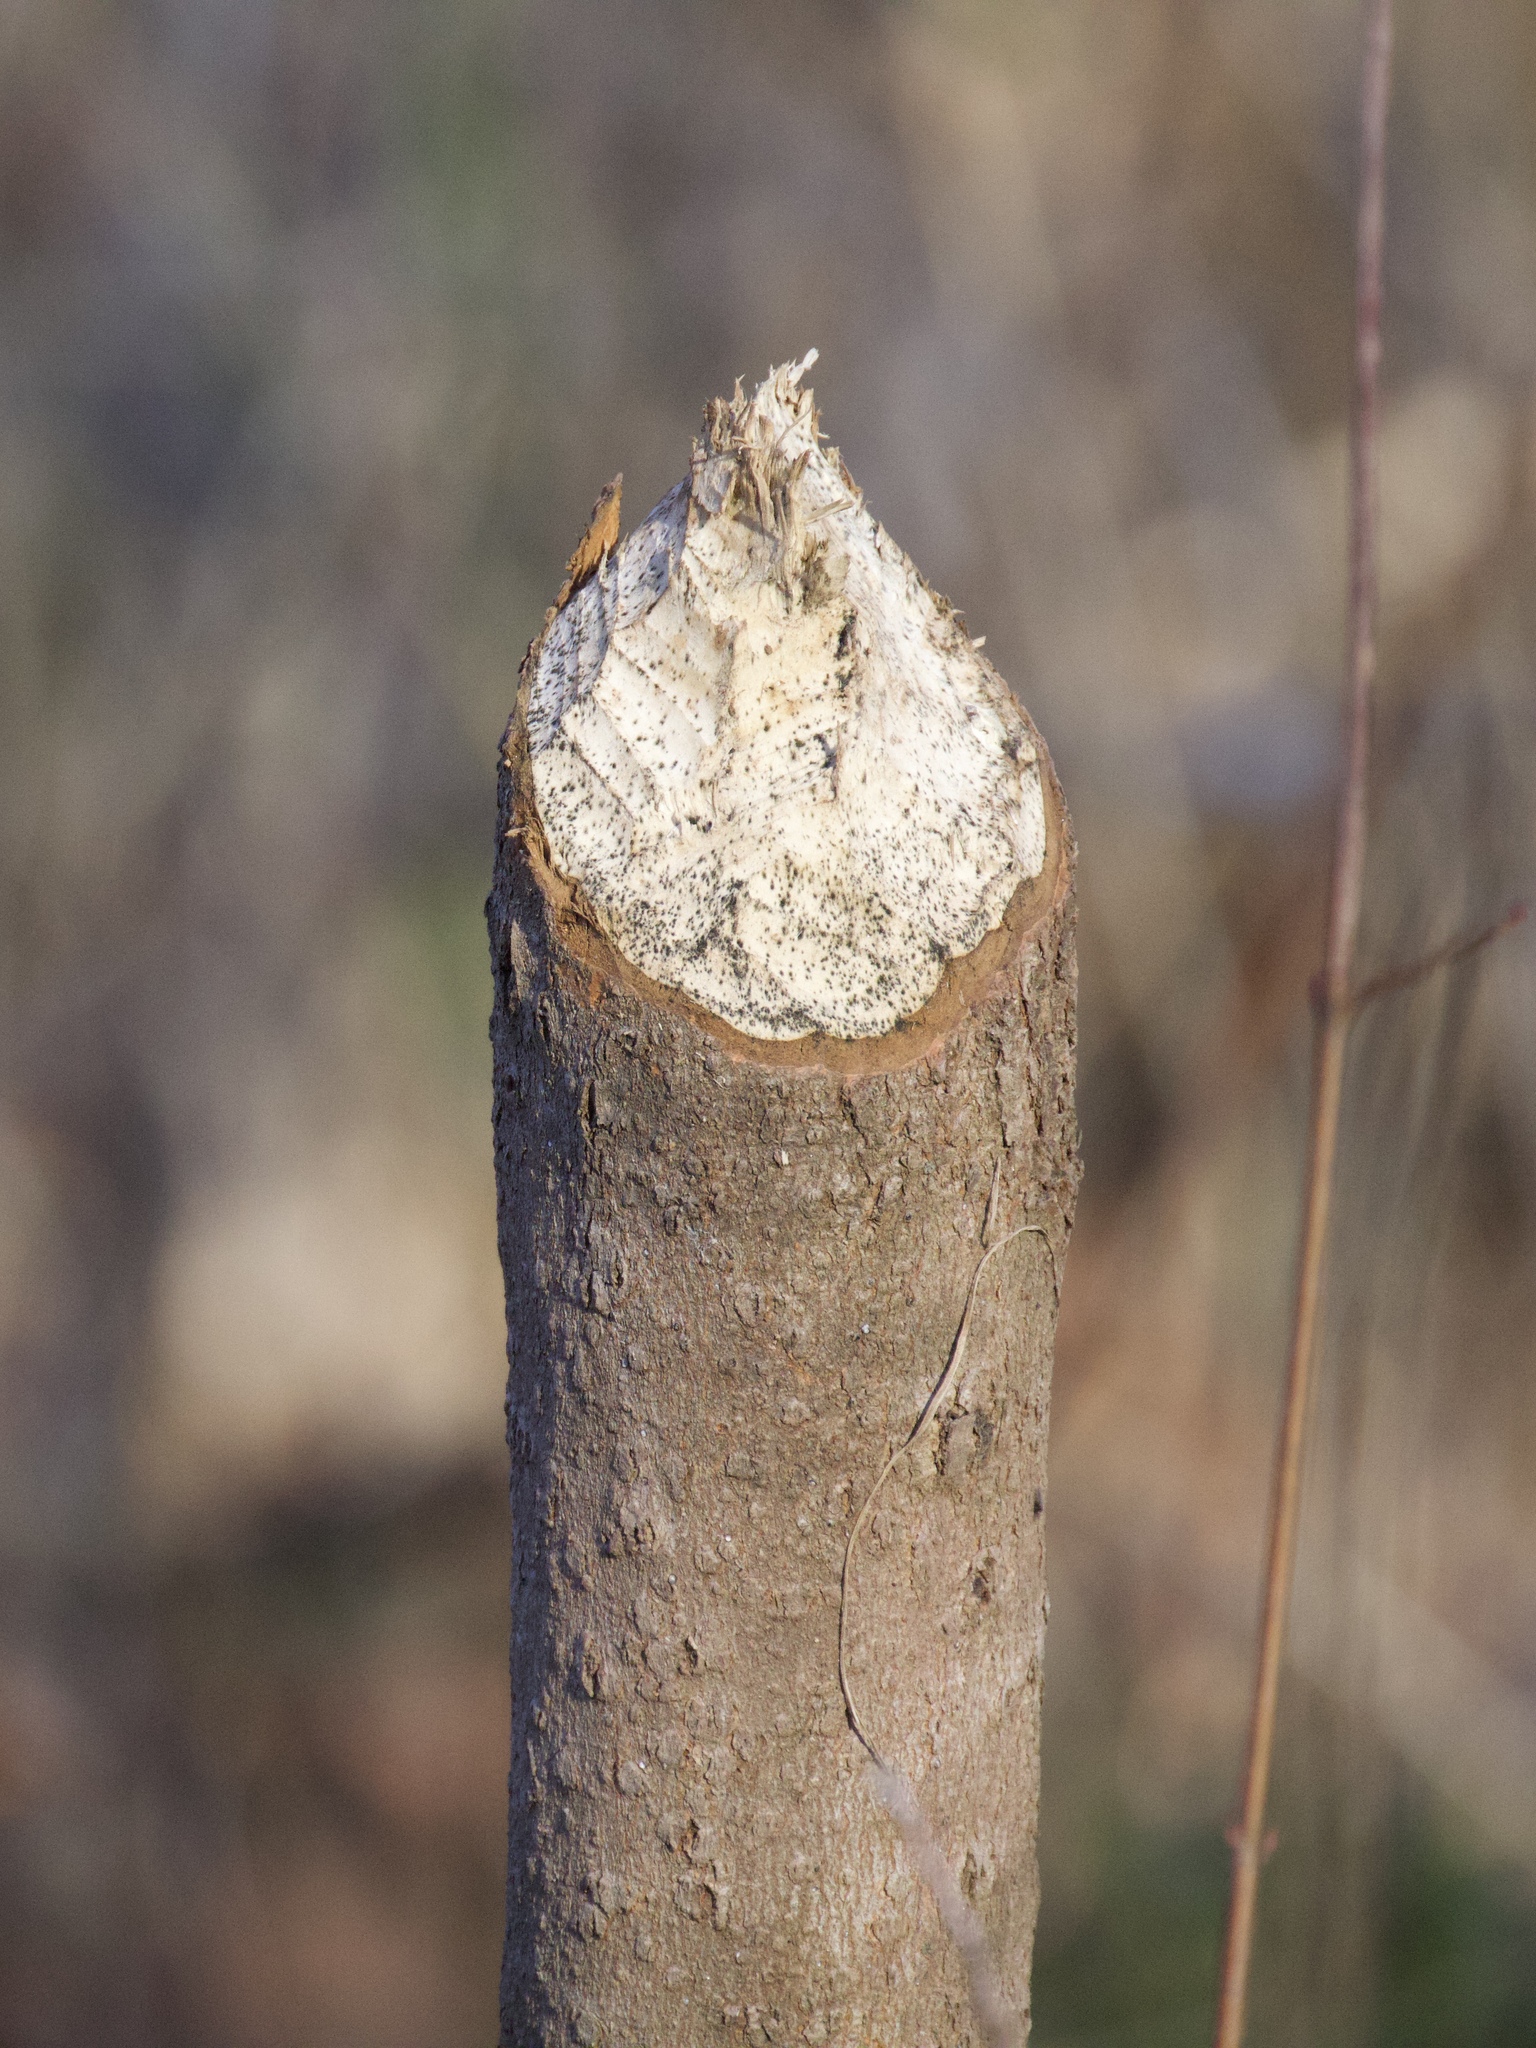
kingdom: Animalia
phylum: Chordata
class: Mammalia
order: Rodentia
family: Castoridae
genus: Castor
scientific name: Castor canadensis
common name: American beaver
